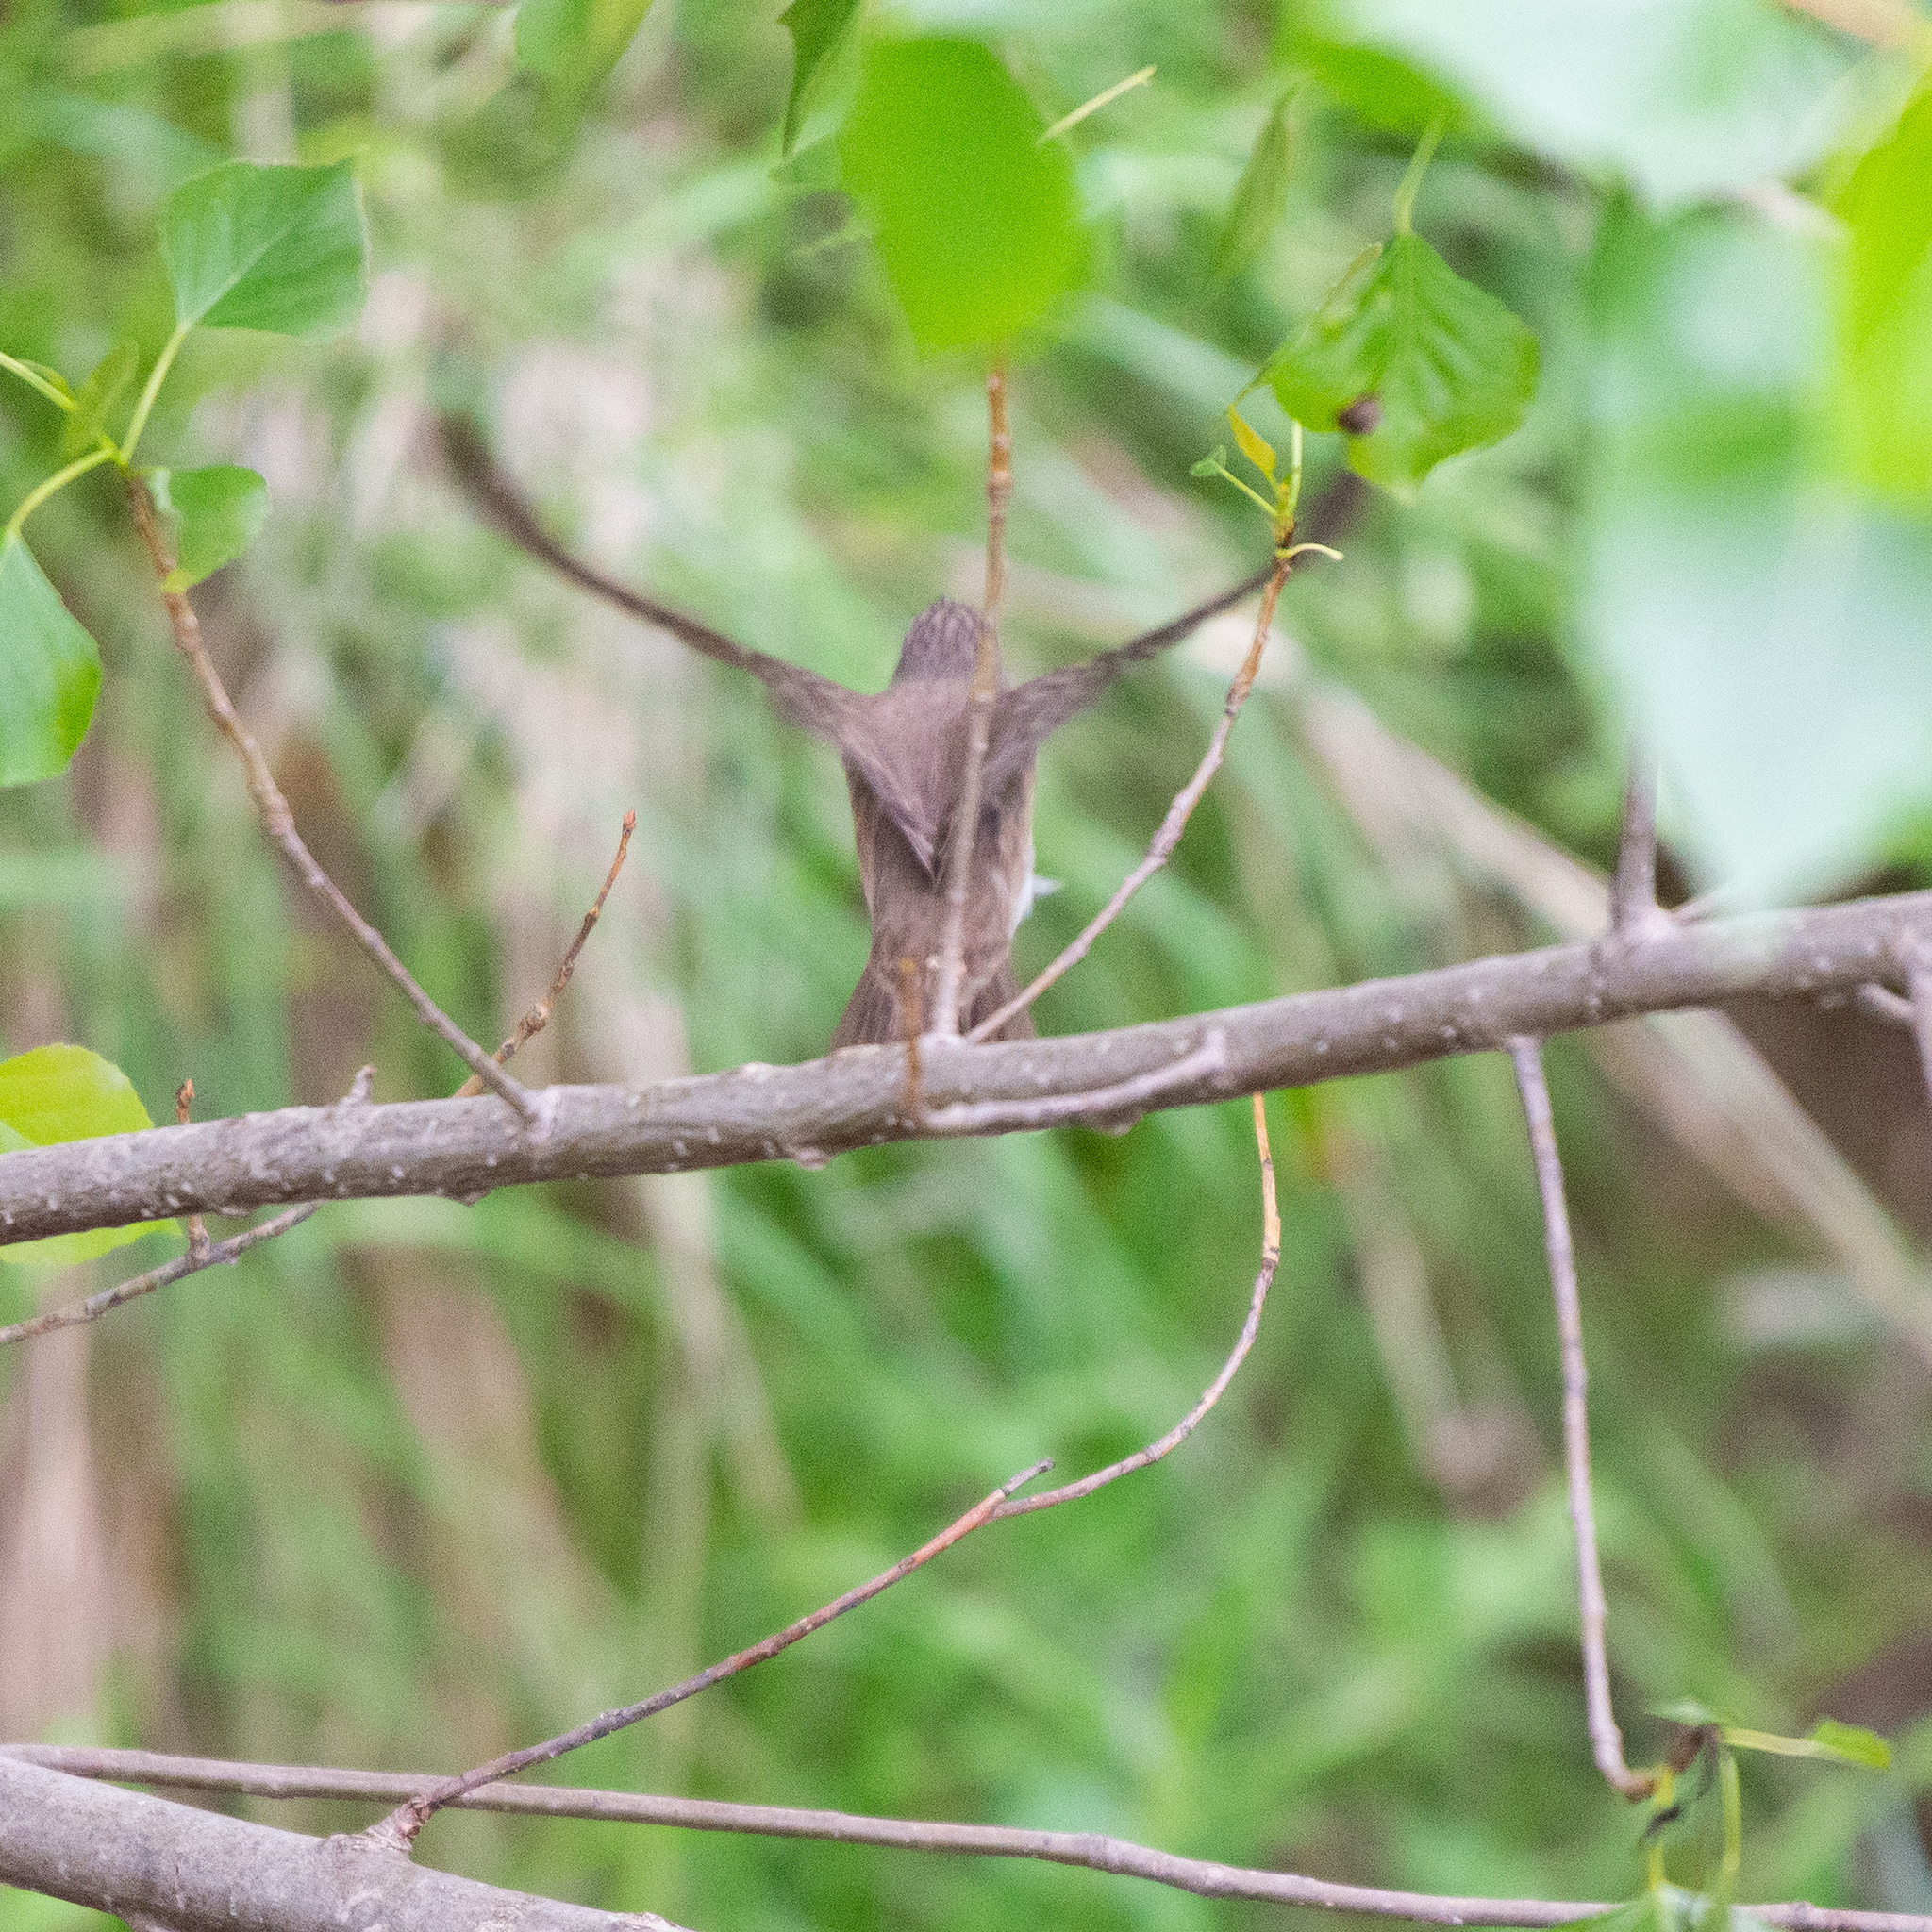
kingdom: Animalia
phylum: Chordata
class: Aves
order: Passeriformes
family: Muscicapidae
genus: Muscicapa
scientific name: Muscicapa striata
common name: Spotted flycatcher
